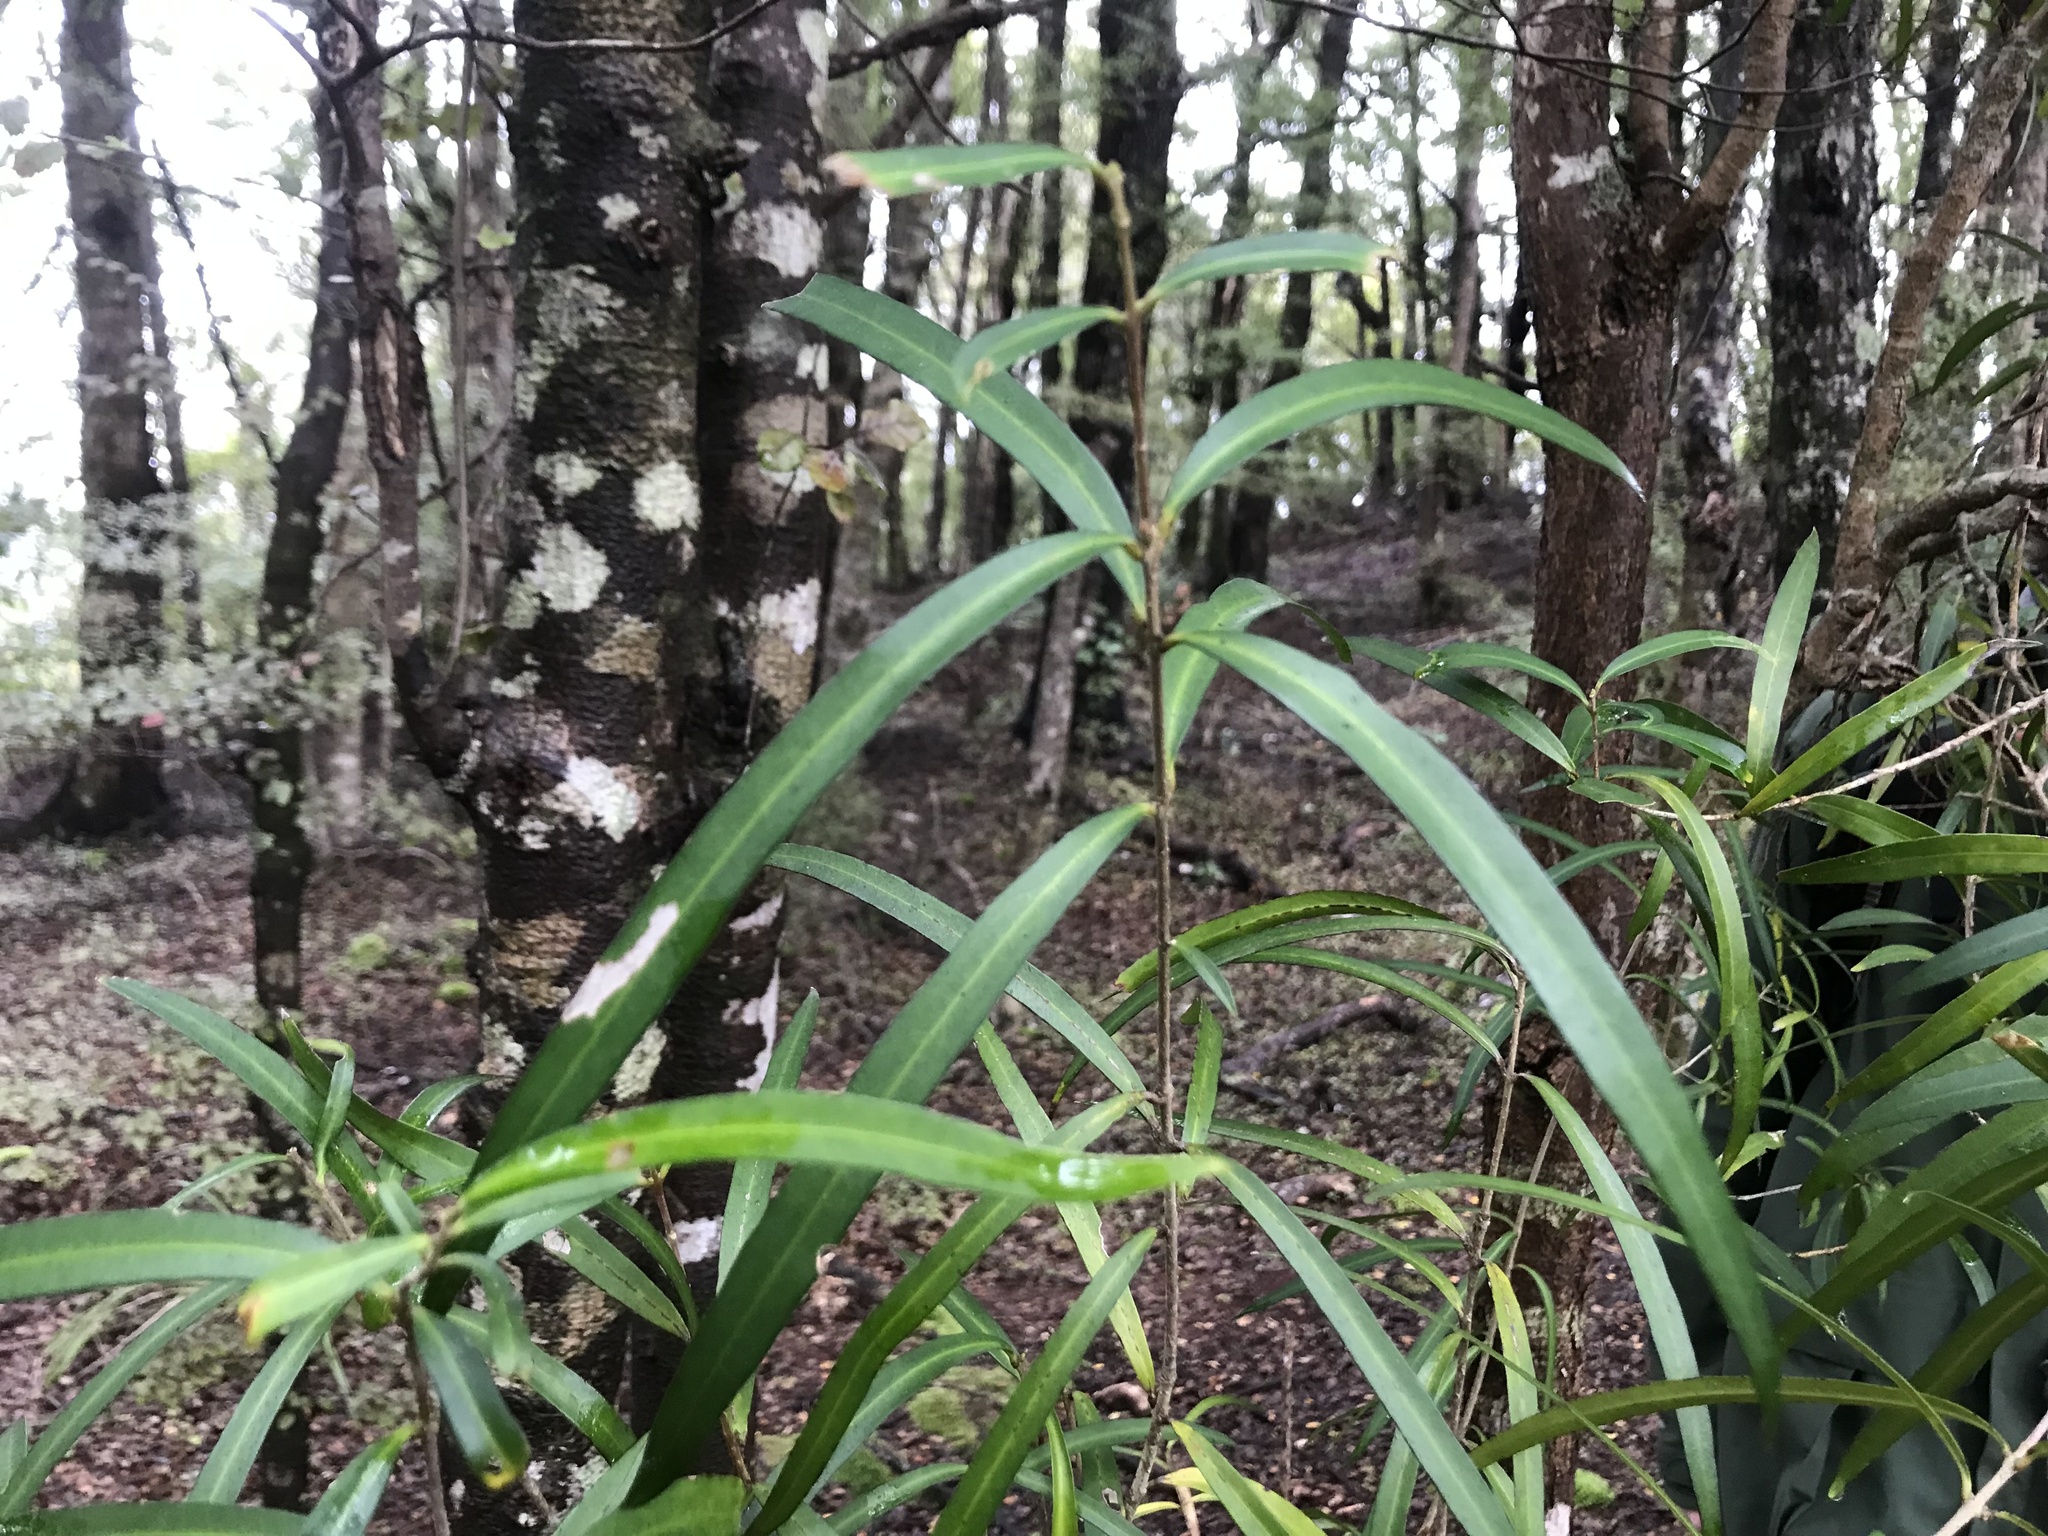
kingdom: Plantae
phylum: Tracheophyta
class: Magnoliopsida
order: Lamiales
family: Oleaceae
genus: Nestegis
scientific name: Nestegis lanceolata
